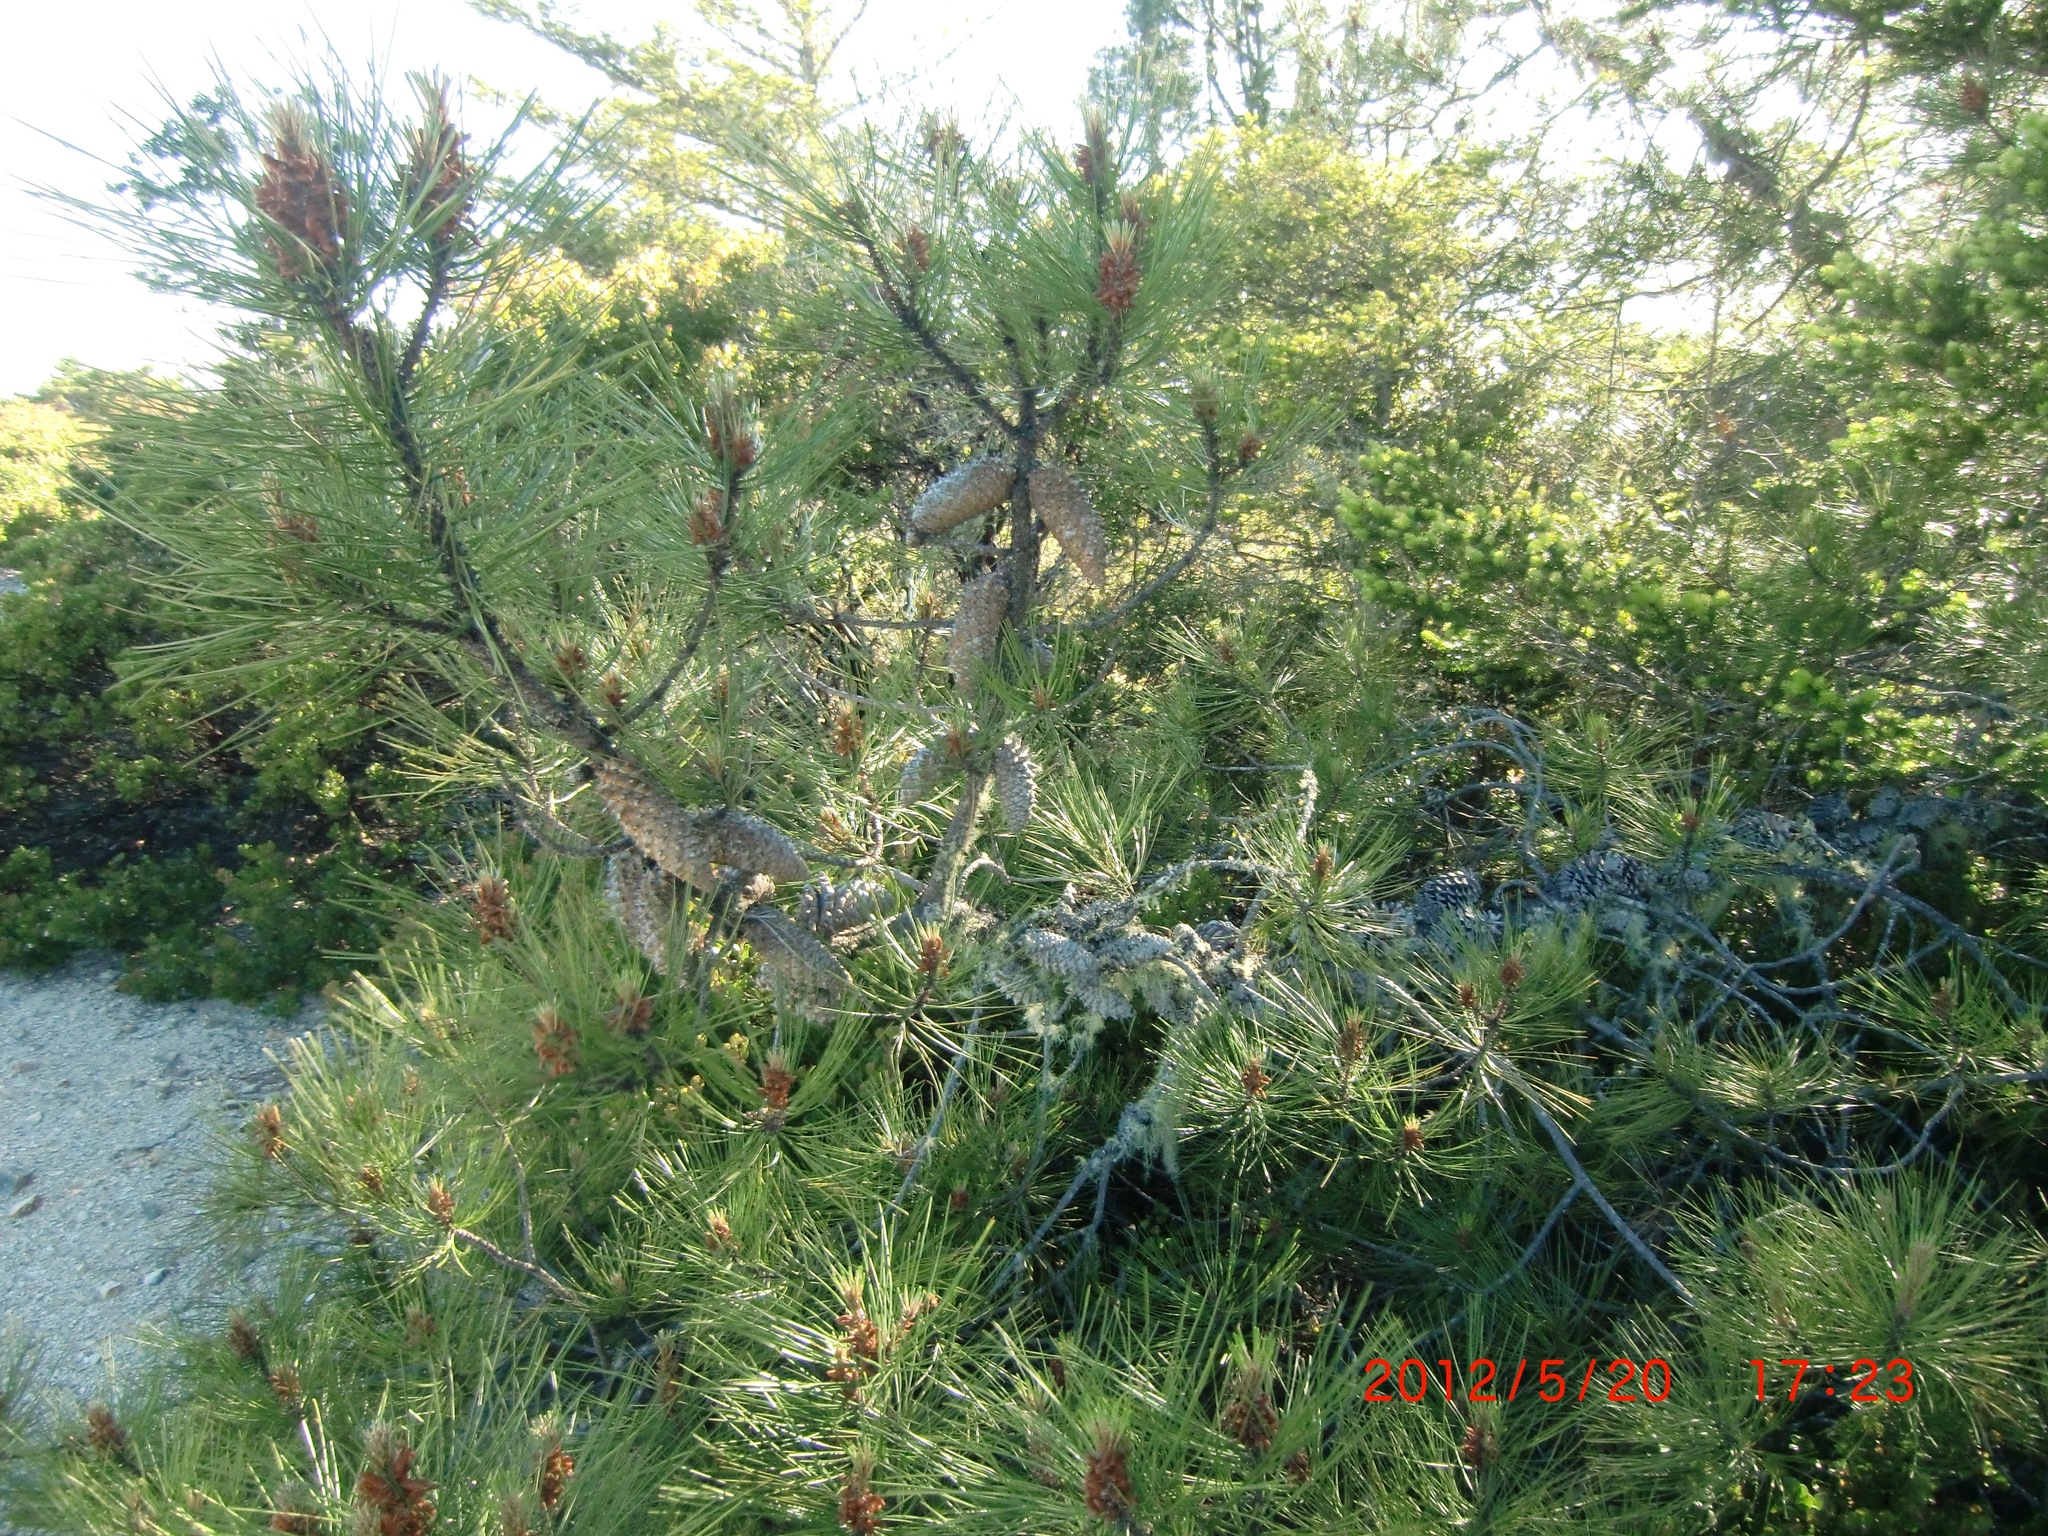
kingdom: Plantae
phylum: Tracheophyta
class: Pinopsida
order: Pinales
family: Pinaceae
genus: Pinus
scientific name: Pinus attenuata
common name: Knobcone pine
